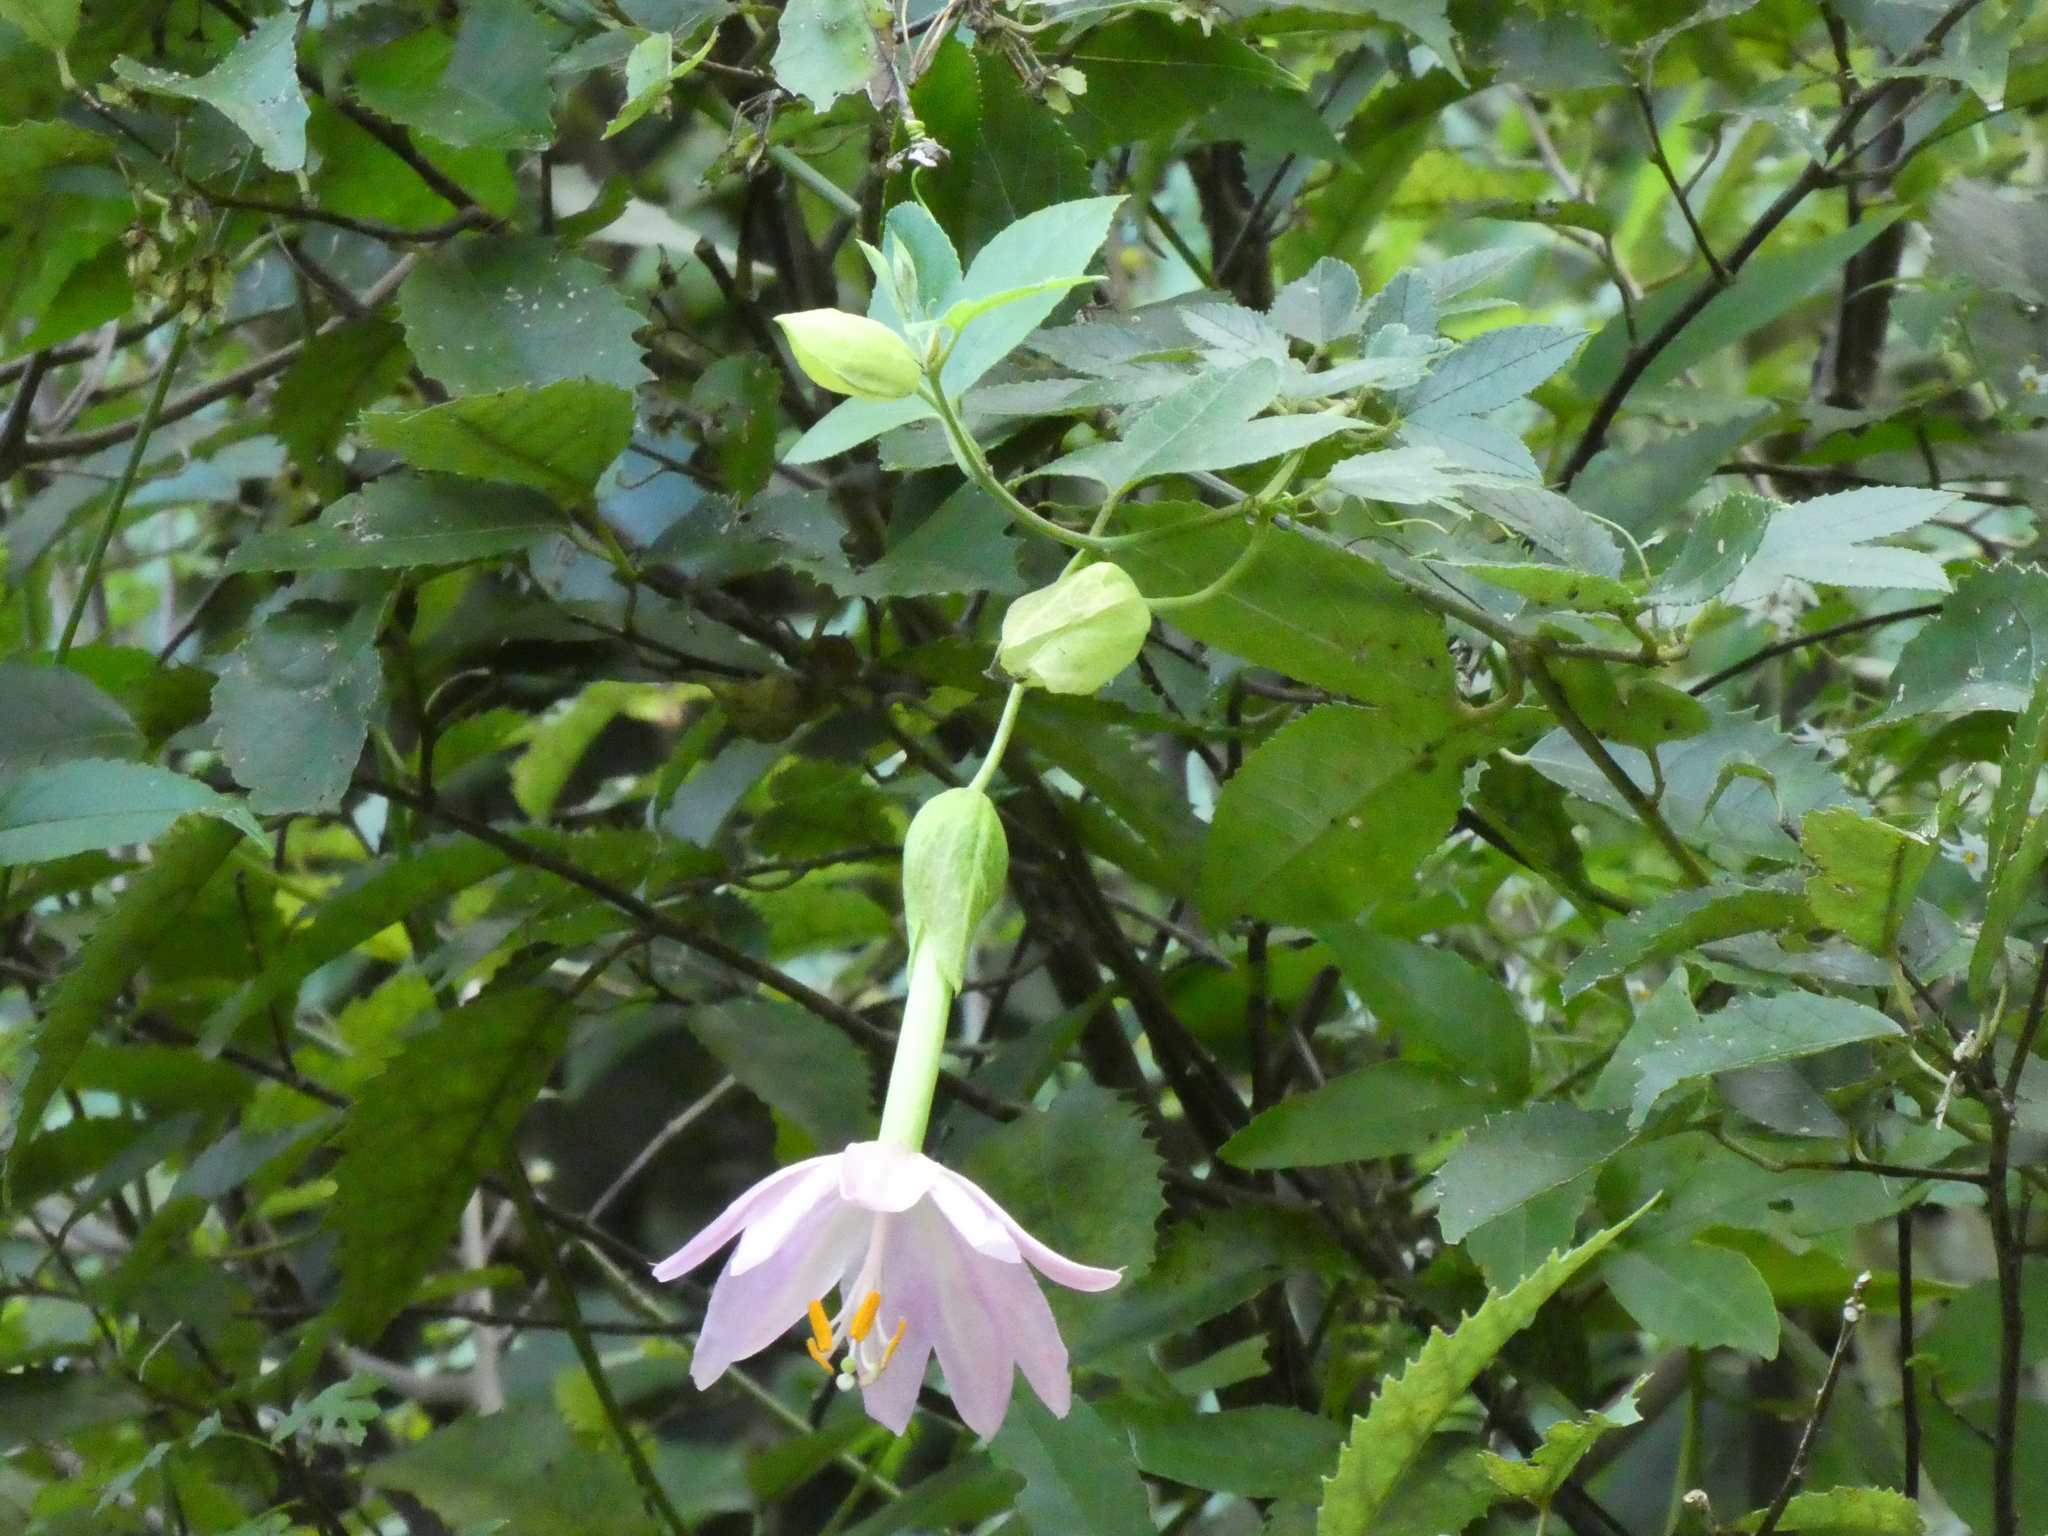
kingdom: Plantae
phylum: Tracheophyta
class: Magnoliopsida
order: Malpighiales
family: Passifloraceae
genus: Passiflora
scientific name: Passiflora tarminiana
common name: Banana poka
